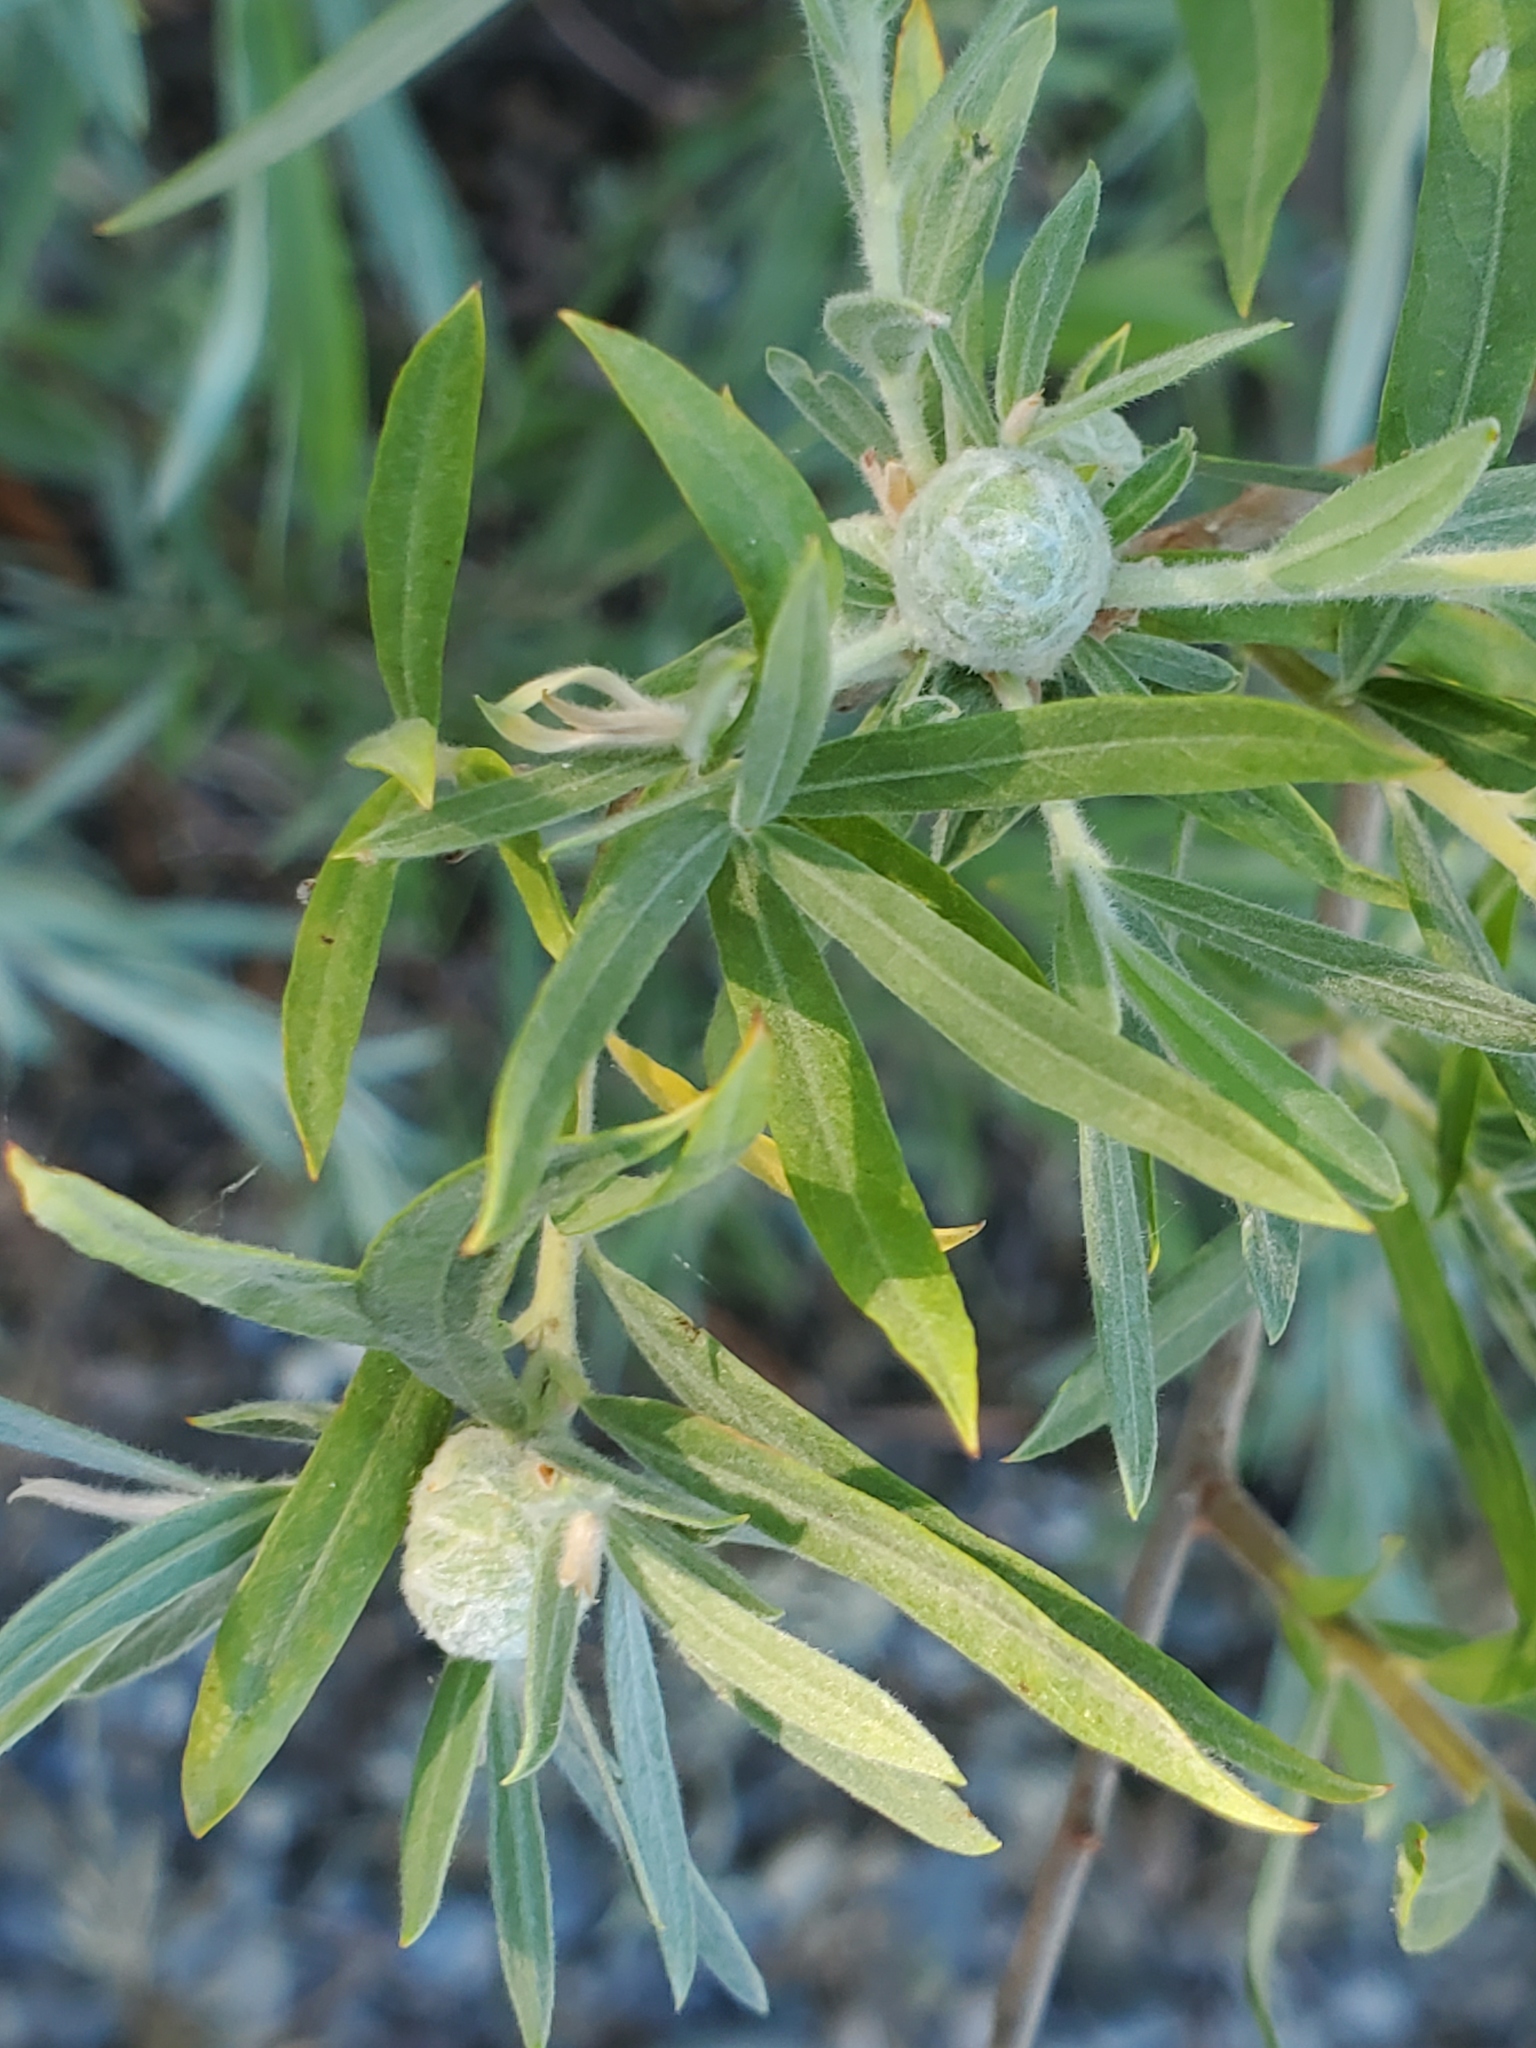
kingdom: Animalia
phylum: Arthropoda
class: Insecta
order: Diptera
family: Cecidomyiidae
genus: Rabdophaga
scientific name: Rabdophaga strobiloides
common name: Willow pinecone gall midge
